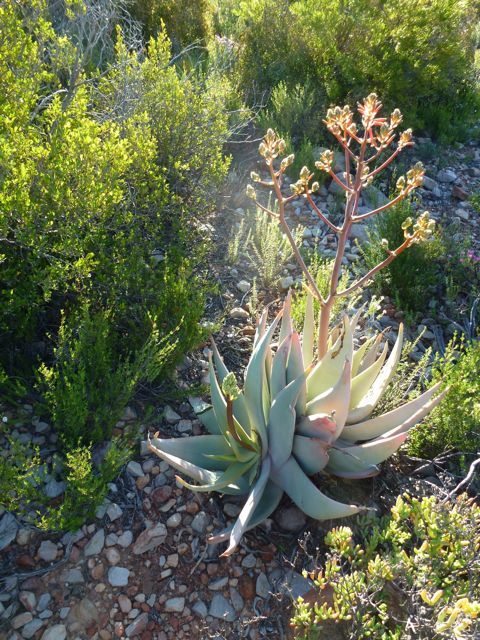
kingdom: Plantae
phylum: Tracheophyta
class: Liliopsida
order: Asparagales
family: Asphodelaceae
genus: Aloe
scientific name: Aloe striata
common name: Coral aloe
